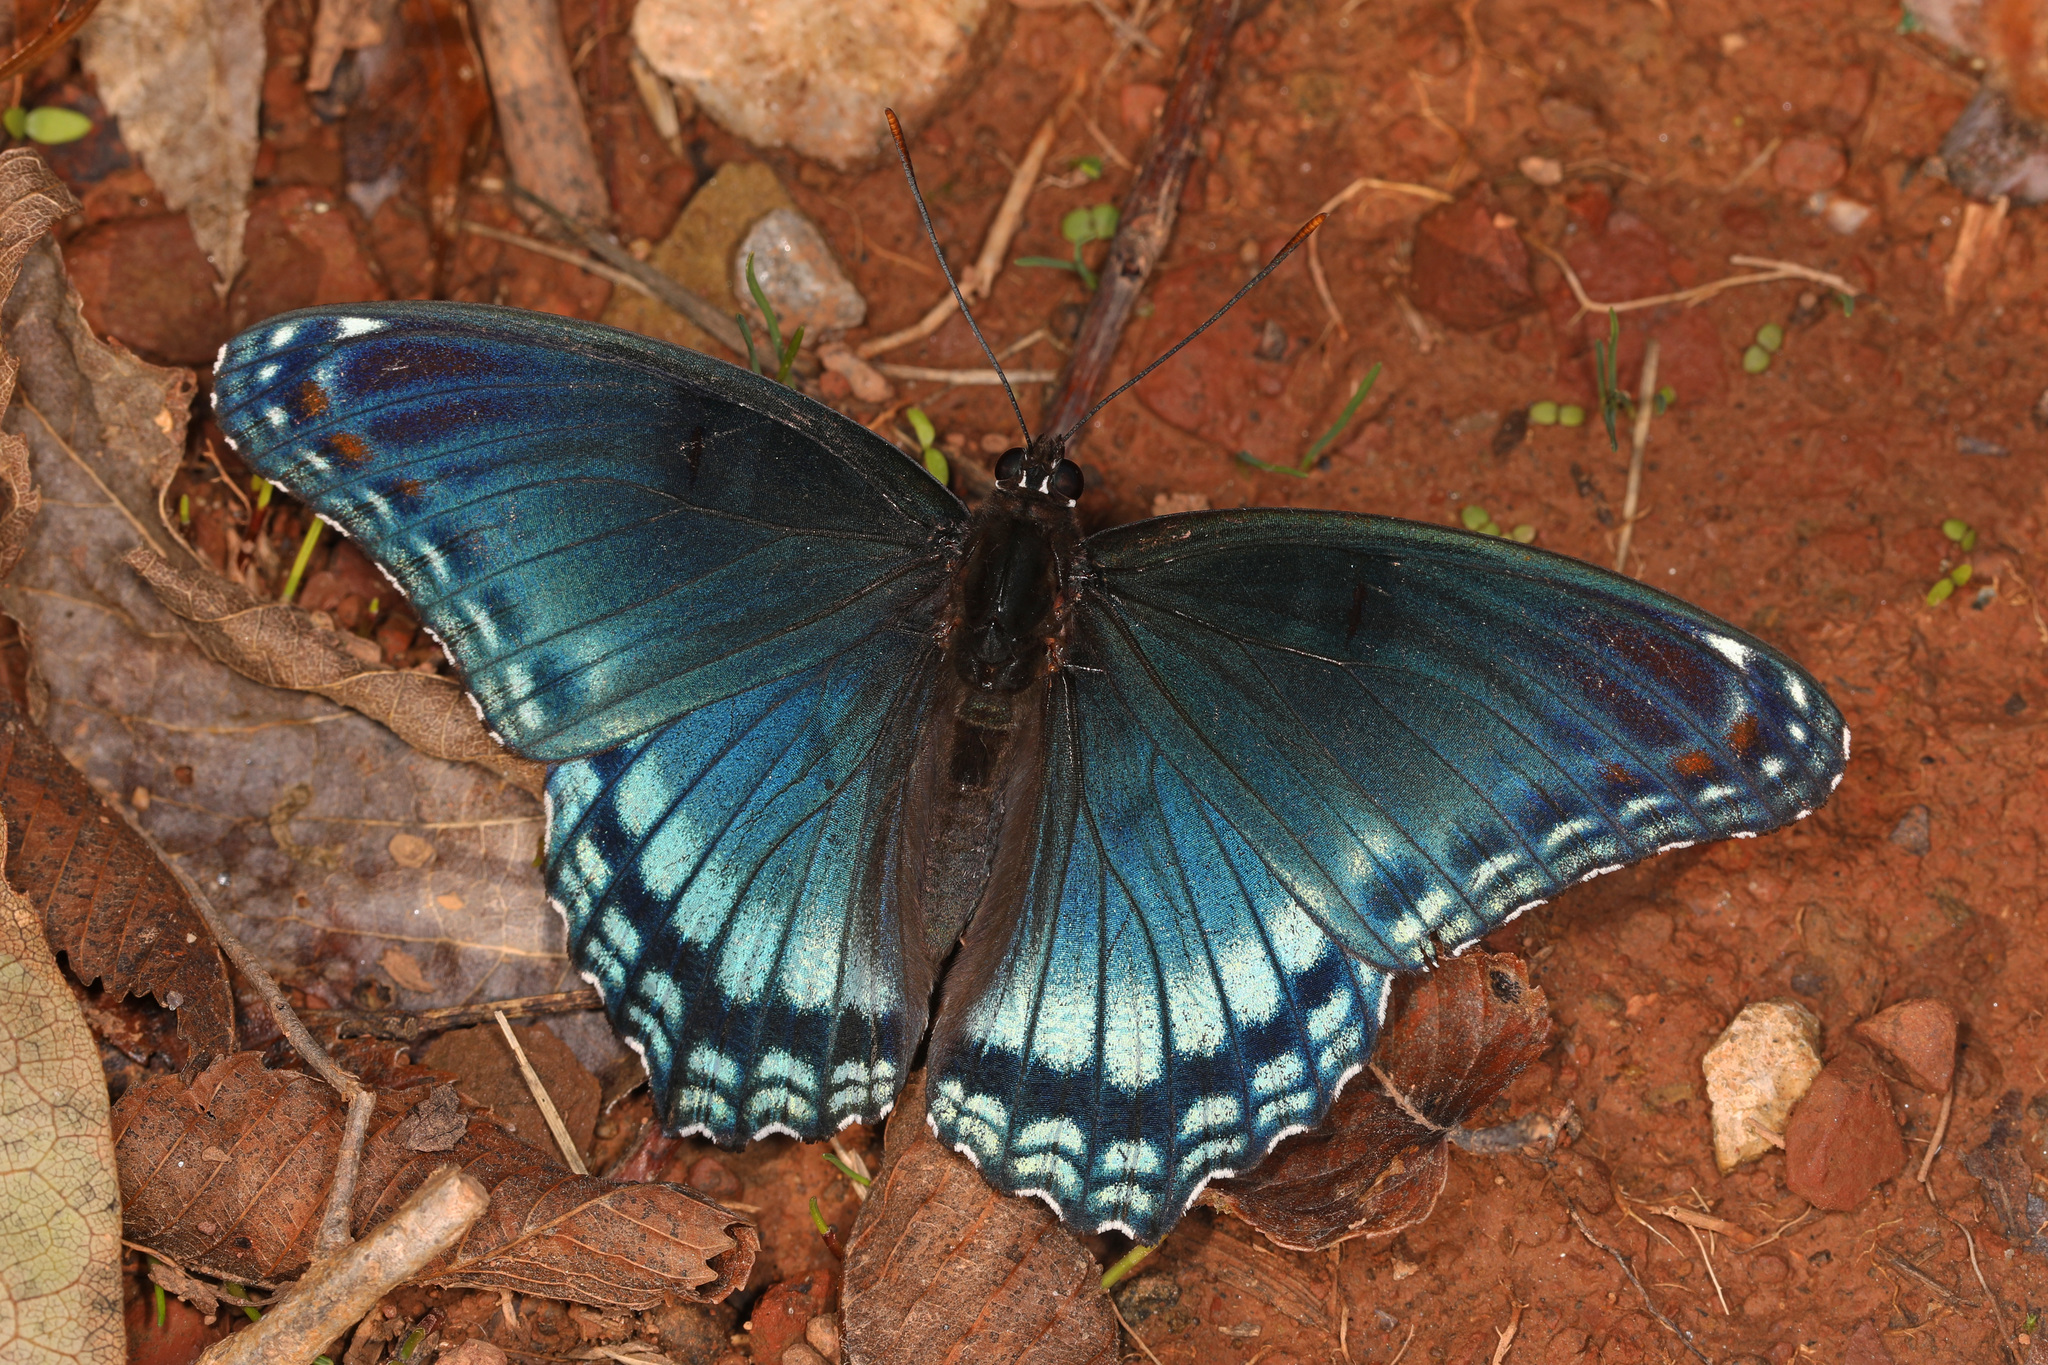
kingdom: Animalia
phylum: Arthropoda
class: Insecta
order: Lepidoptera
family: Nymphalidae
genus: Limenitis
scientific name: Limenitis astyanax
